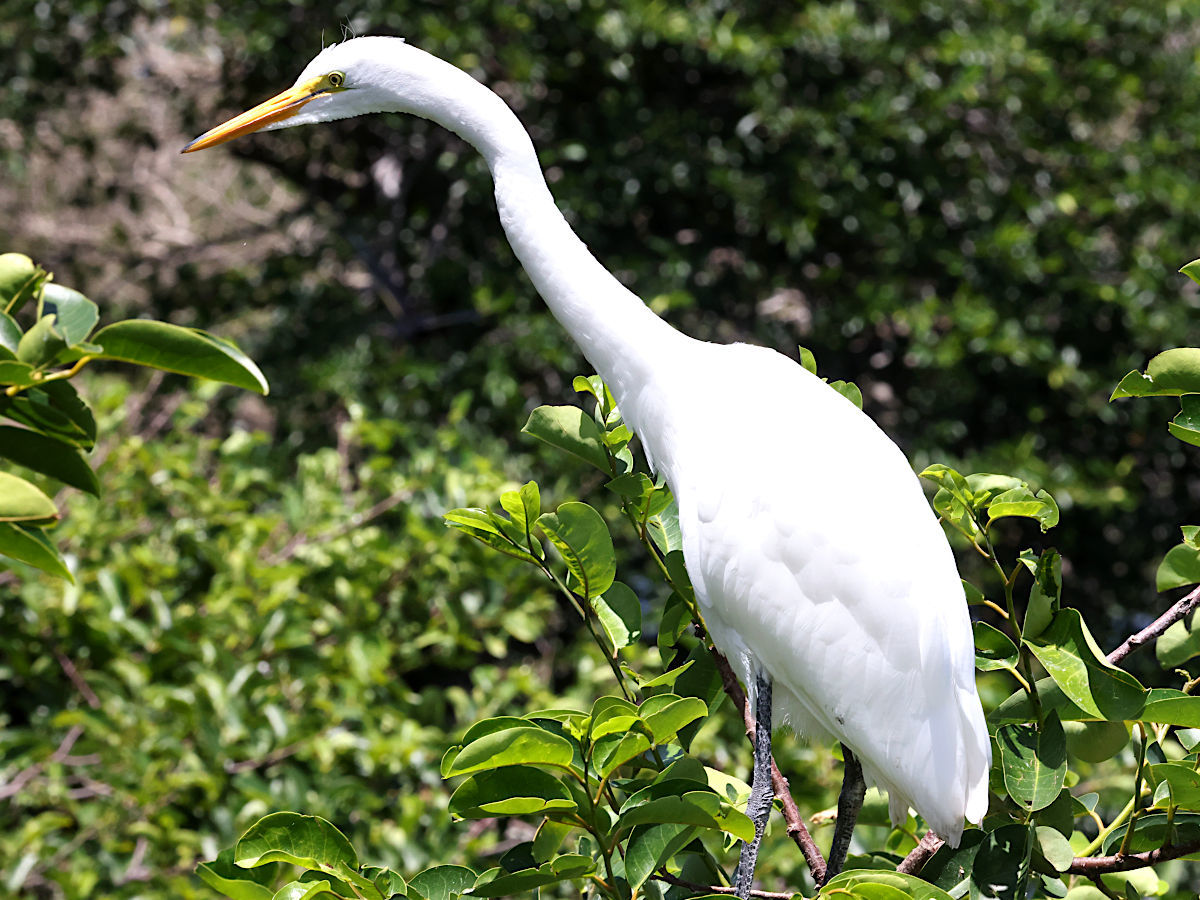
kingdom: Animalia
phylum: Chordata
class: Aves
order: Pelecaniformes
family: Ardeidae
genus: Ardea
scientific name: Ardea alba
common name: Great egret
